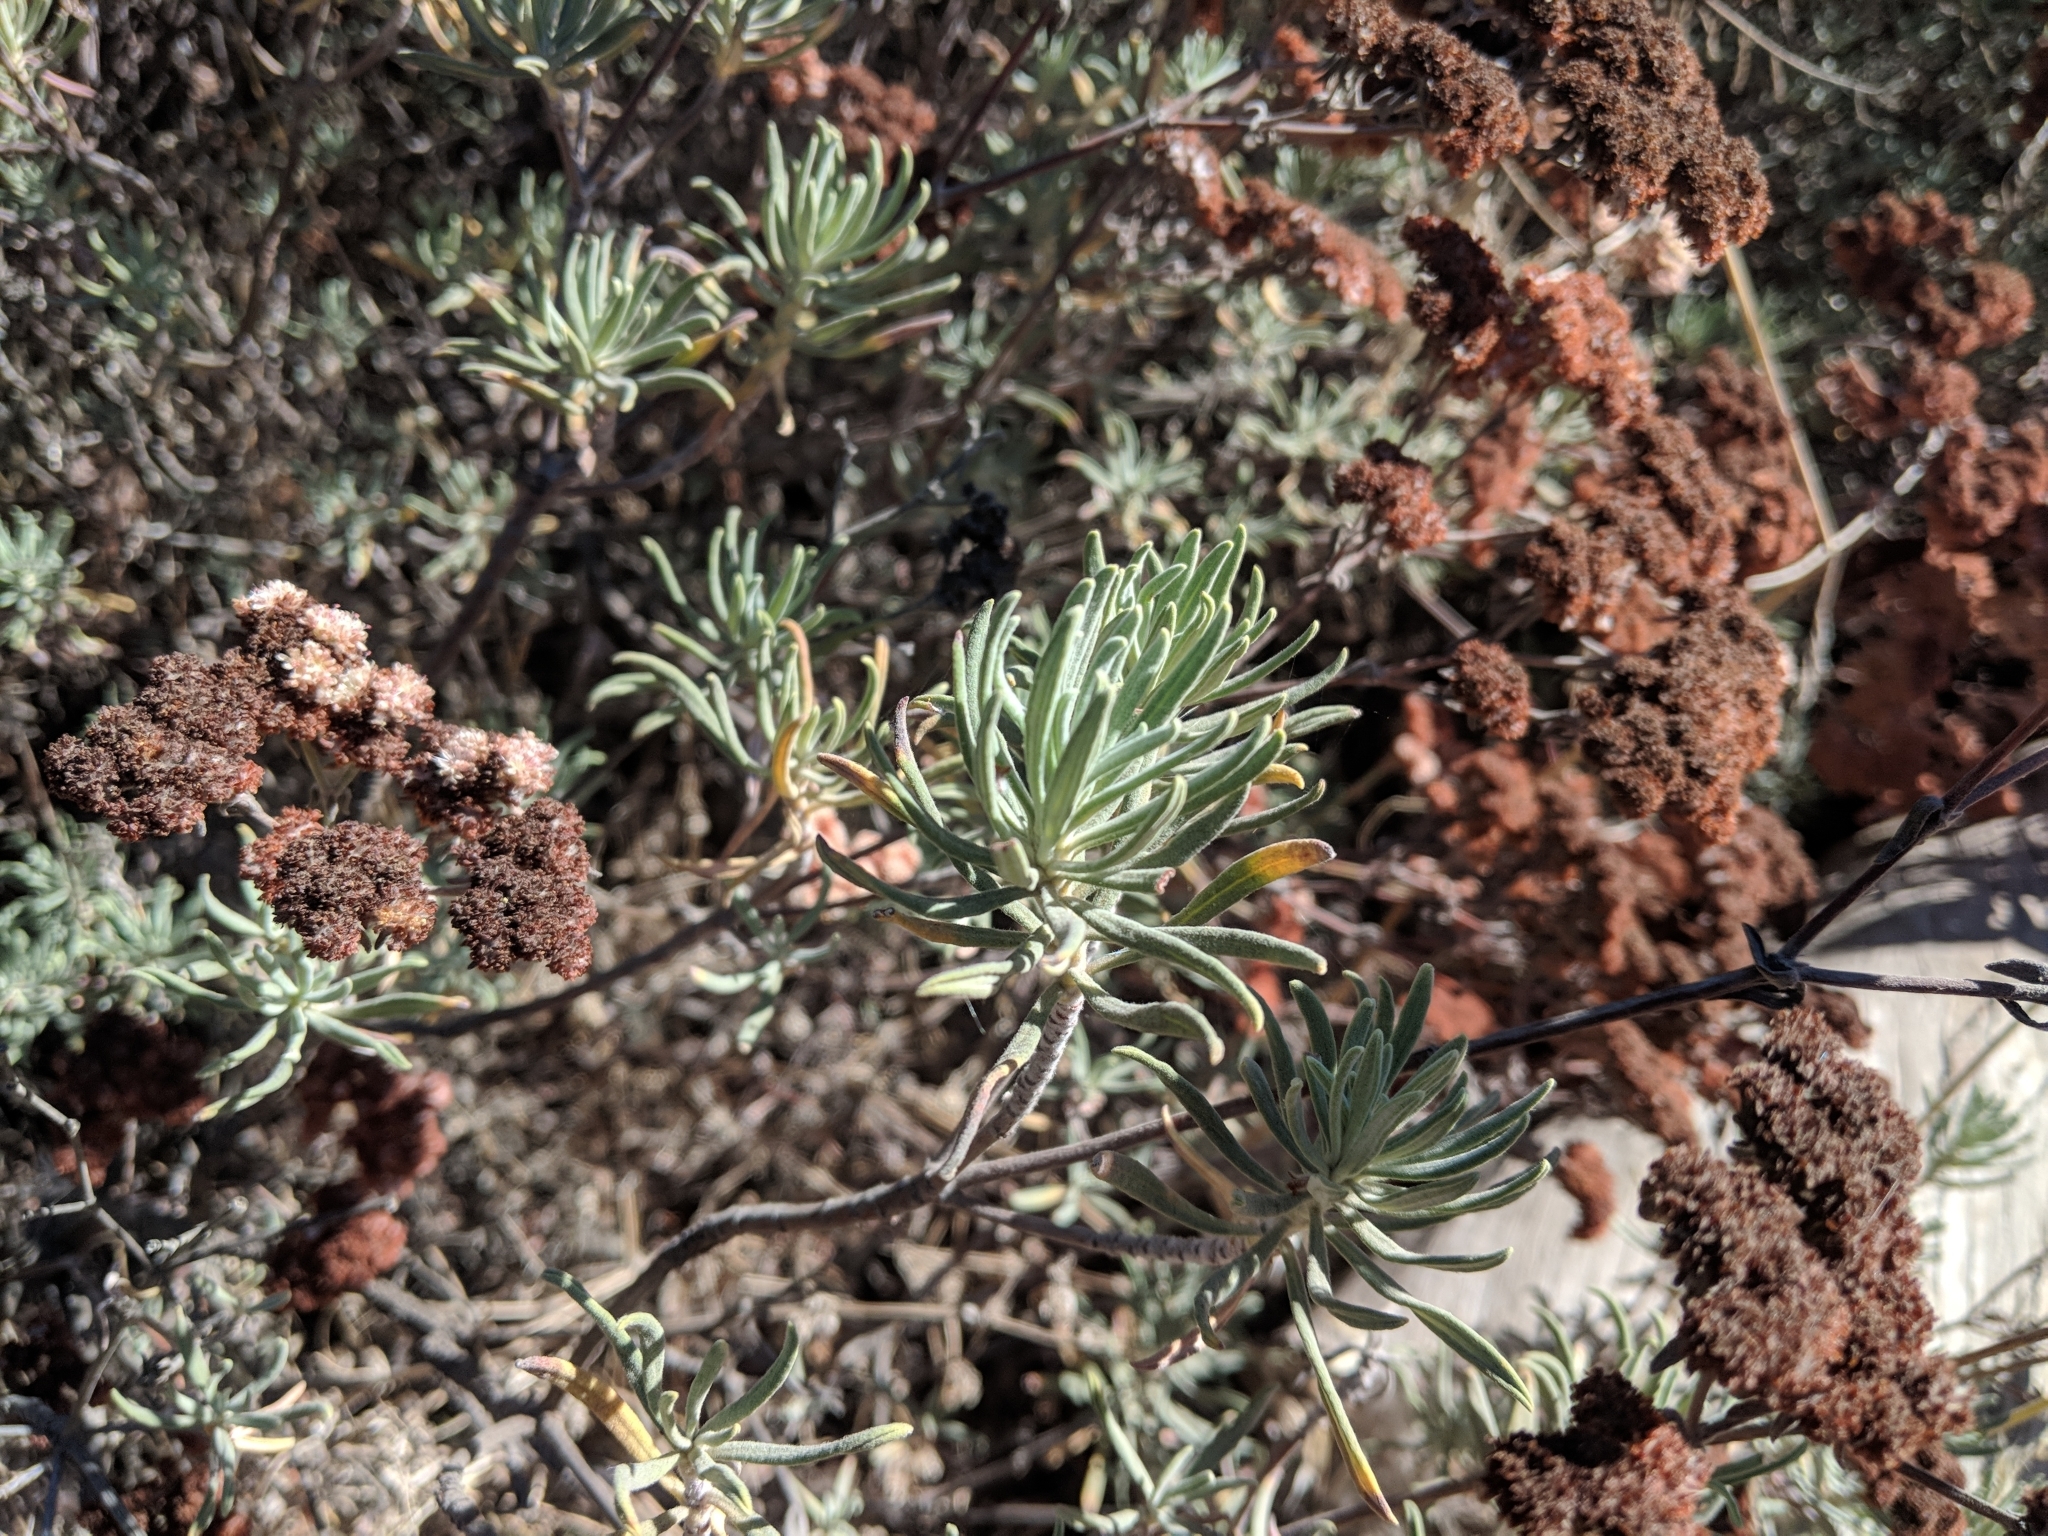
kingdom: Plantae
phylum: Tracheophyta
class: Magnoliopsida
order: Caryophyllales
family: Polygonaceae
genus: Eriogonum
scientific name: Eriogonum arborescens
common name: Island buckwheat
